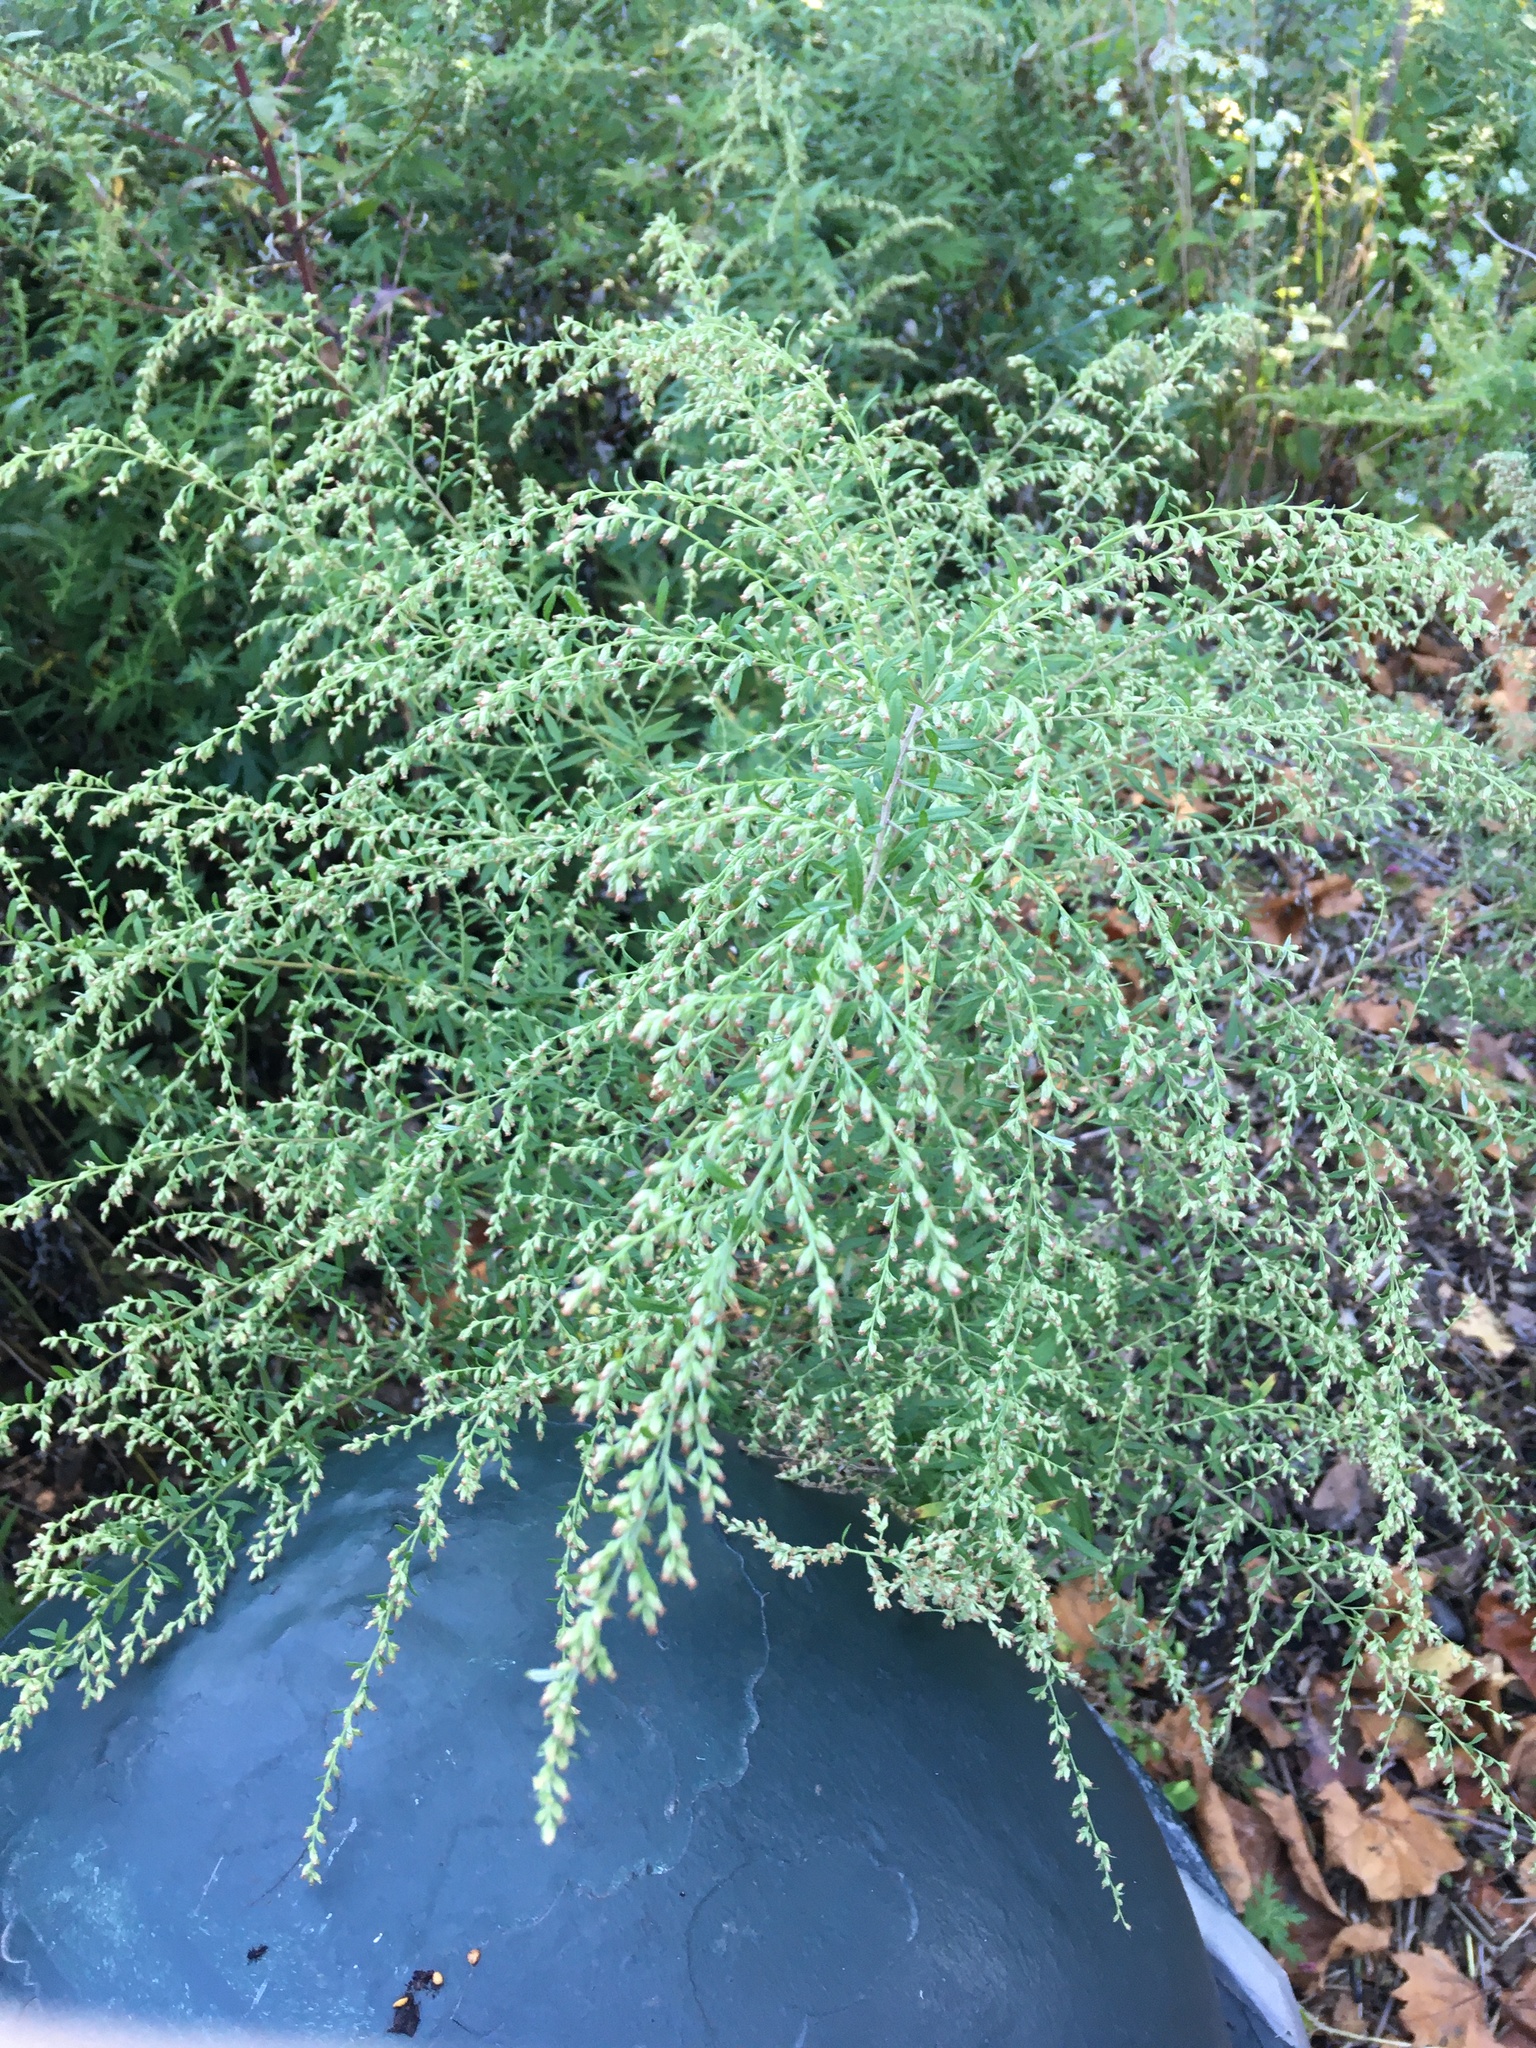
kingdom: Plantae
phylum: Tracheophyta
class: Magnoliopsida
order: Asterales
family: Asteraceae
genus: Artemisia
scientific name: Artemisia vulgaris
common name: Mugwort
